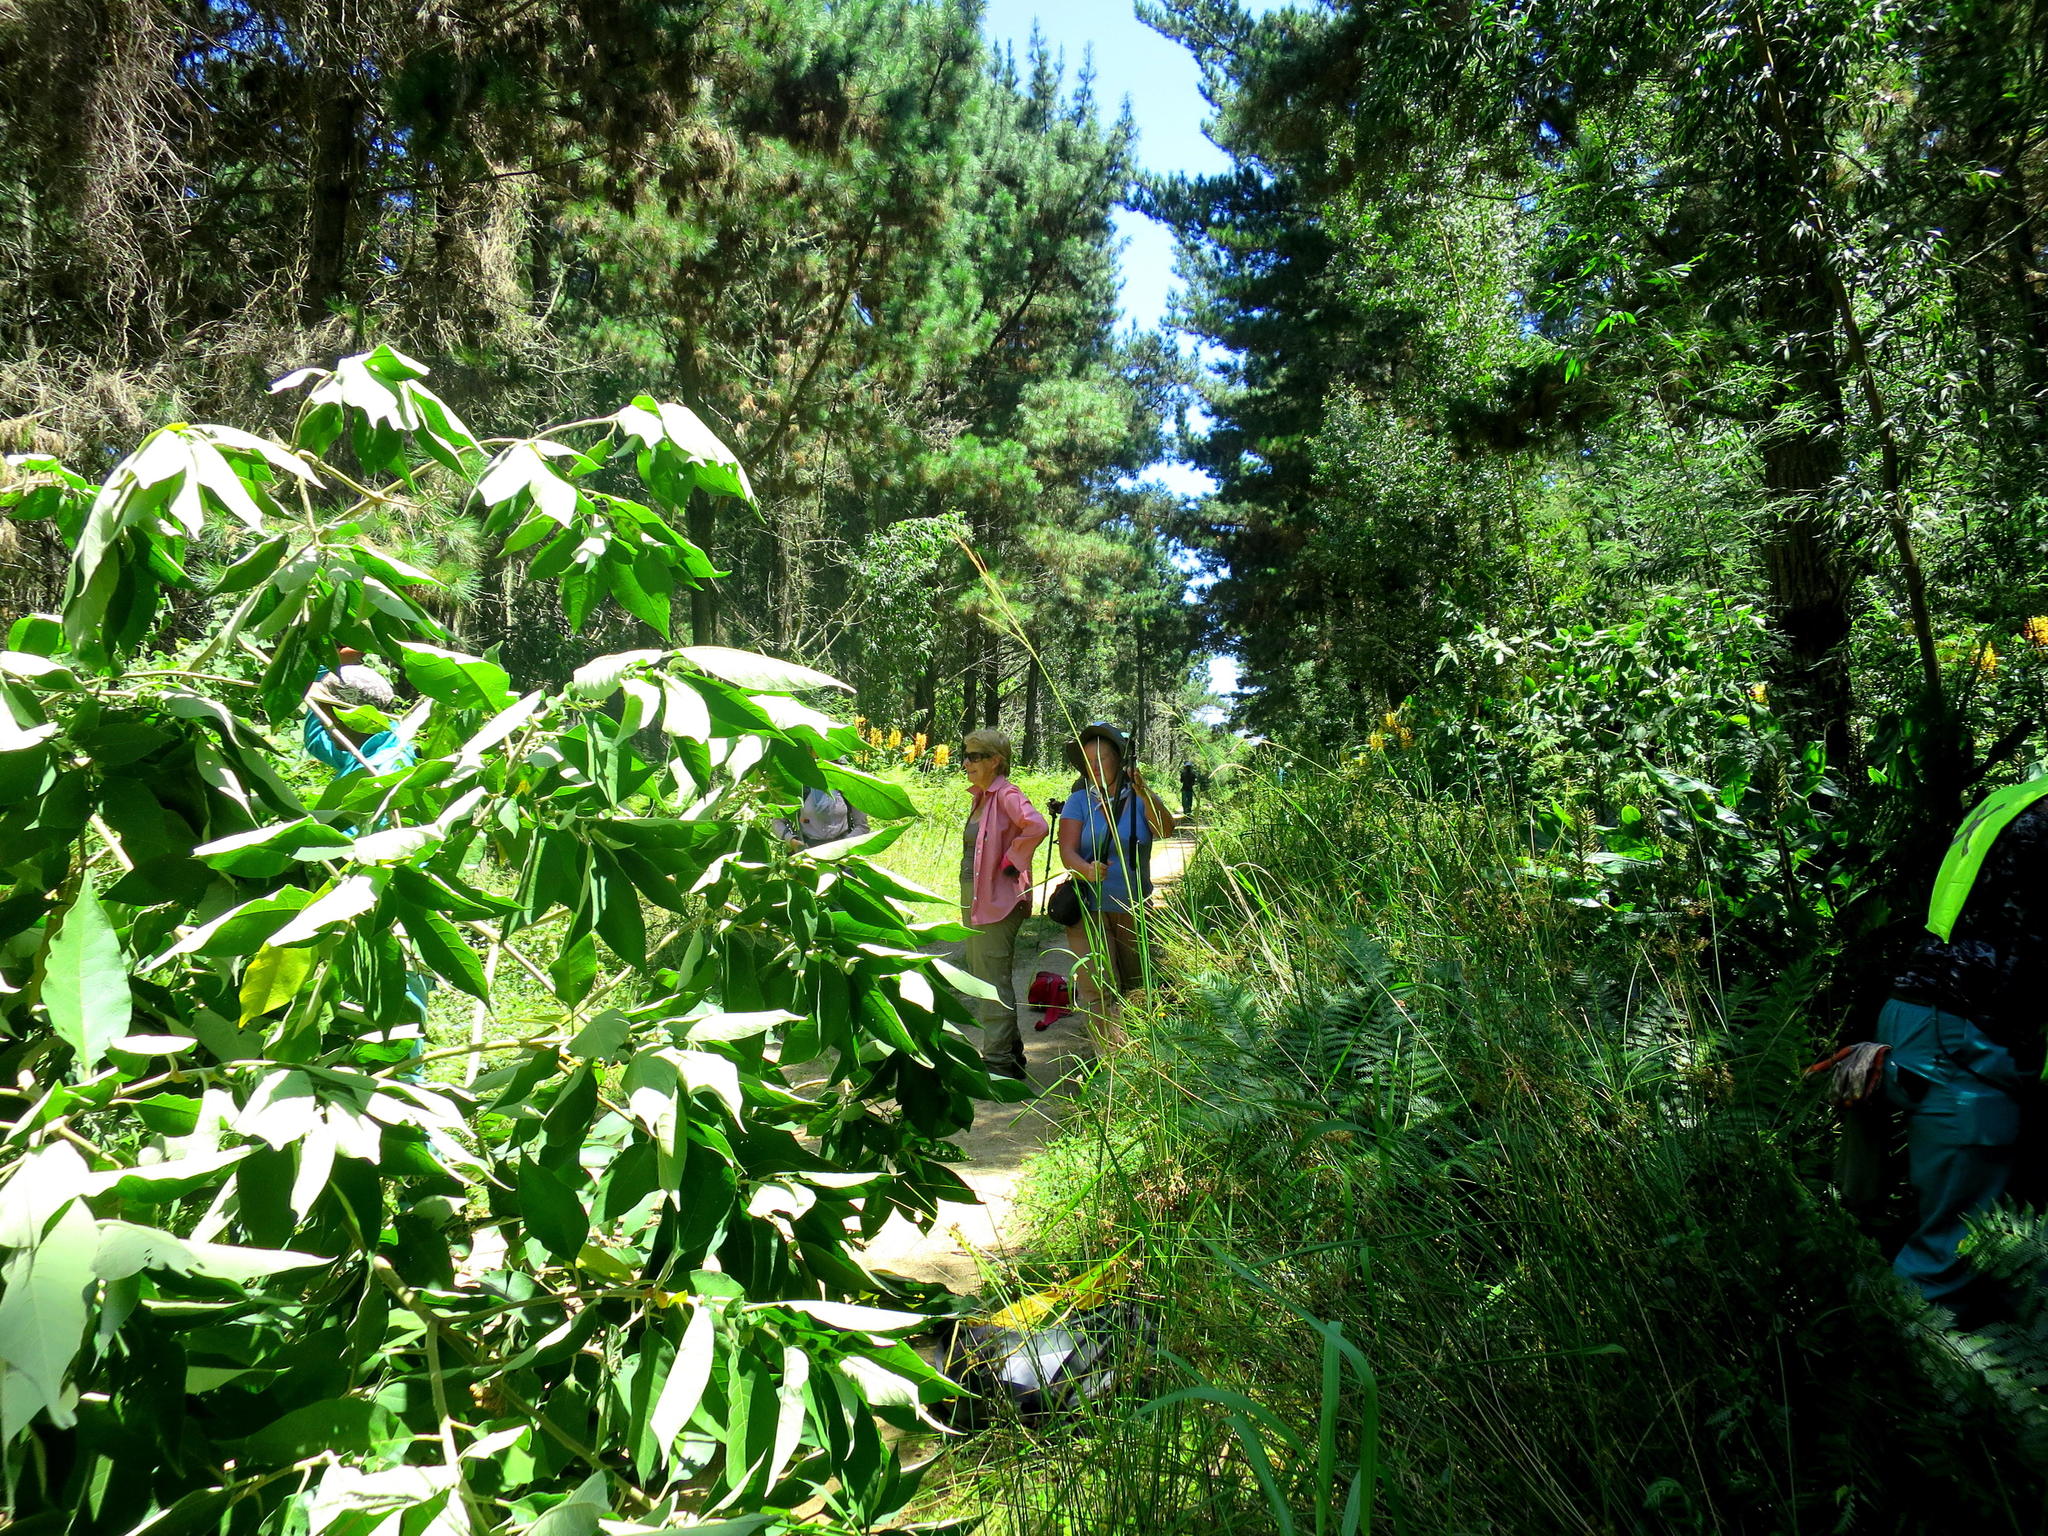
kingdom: Plantae
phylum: Tracheophyta
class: Magnoliopsida
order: Solanales
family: Solanaceae
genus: Solanum
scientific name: Solanum mauritianum
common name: Earleaf nightshade
